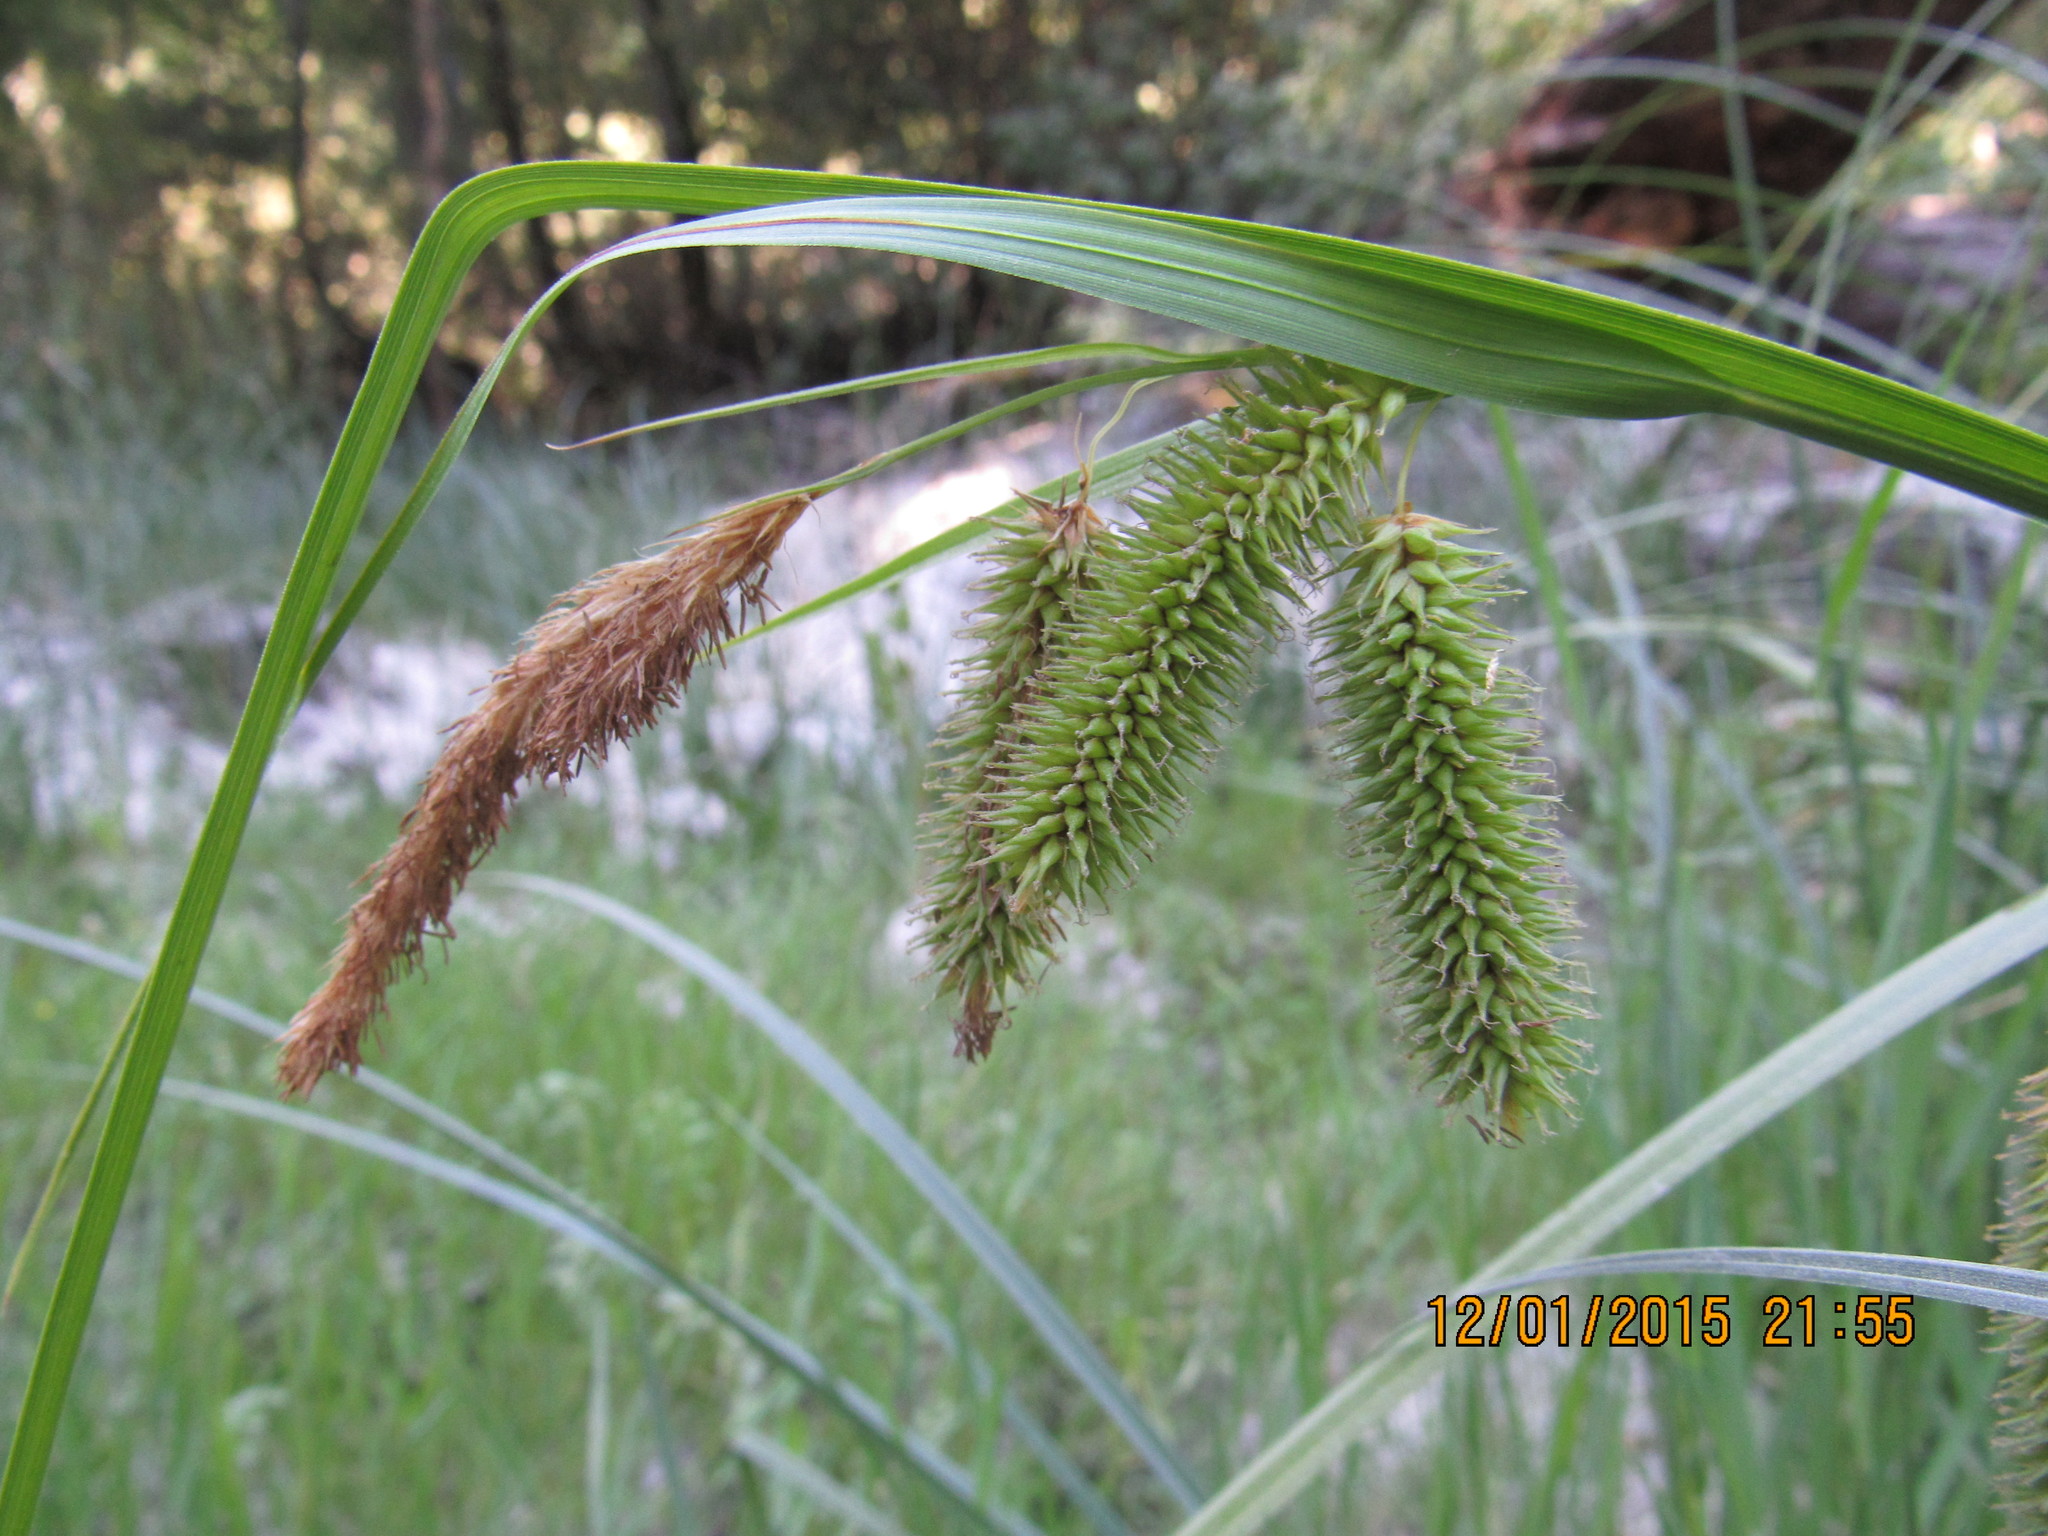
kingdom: Plantae
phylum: Tracheophyta
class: Liliopsida
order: Poales
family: Cyperaceae
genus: Carex
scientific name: Carex excelsa
